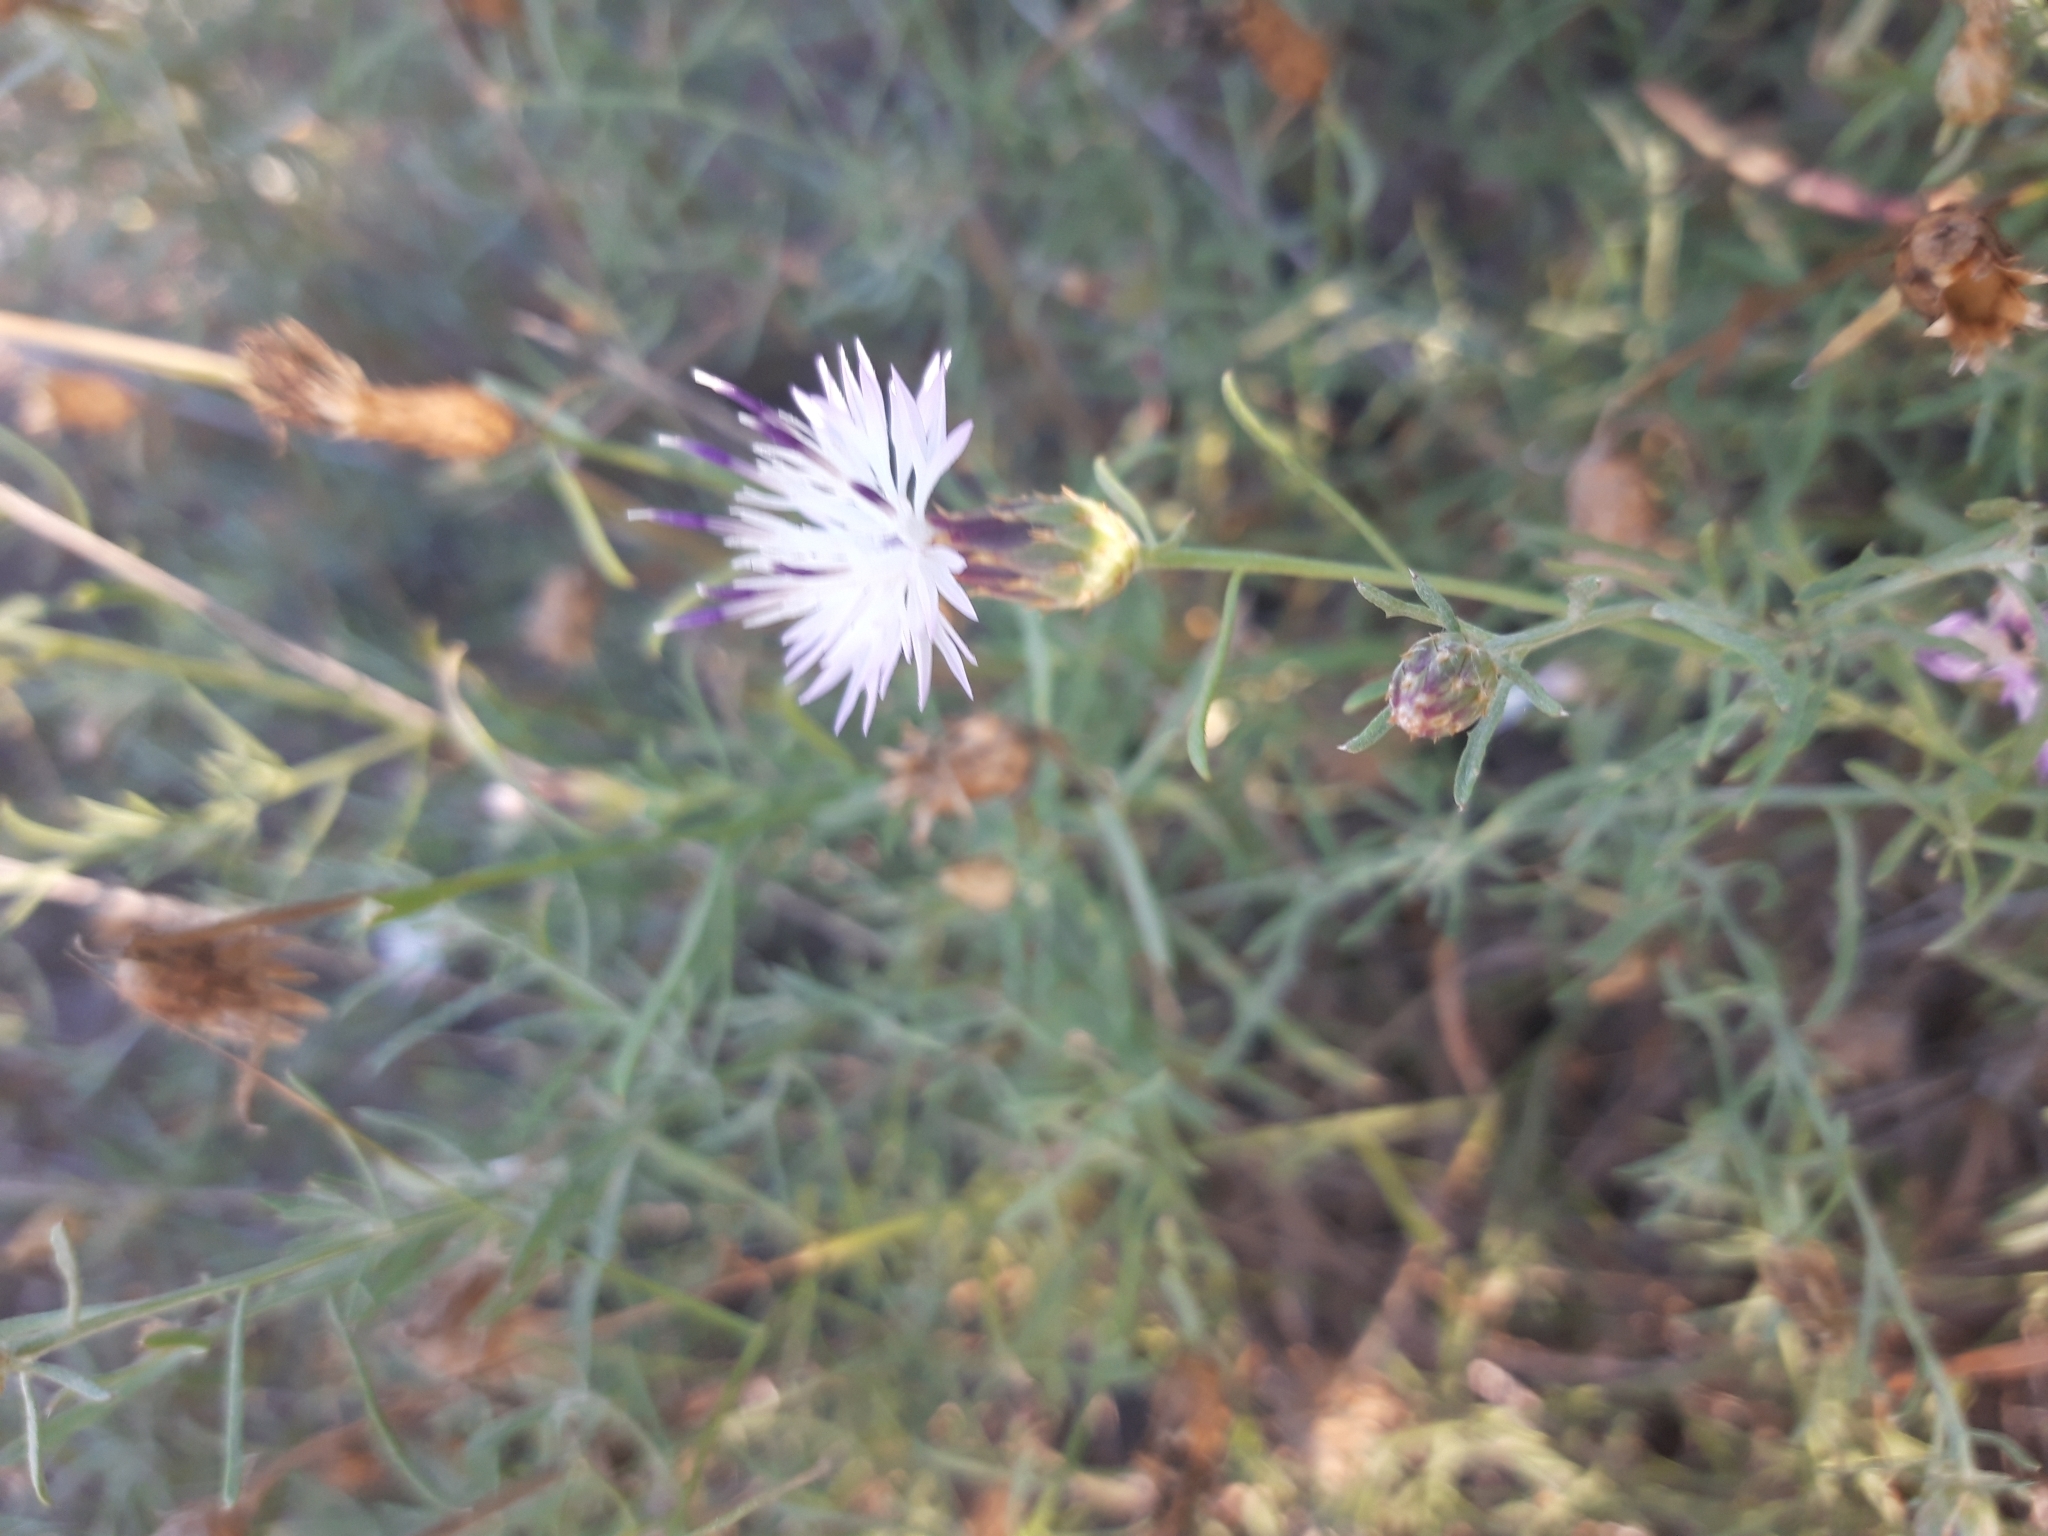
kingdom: Plantae
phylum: Tracheophyta
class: Magnoliopsida
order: Asterales
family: Asteraceae
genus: Centaurea
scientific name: Centaurea aspera
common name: Rough star-thistle
